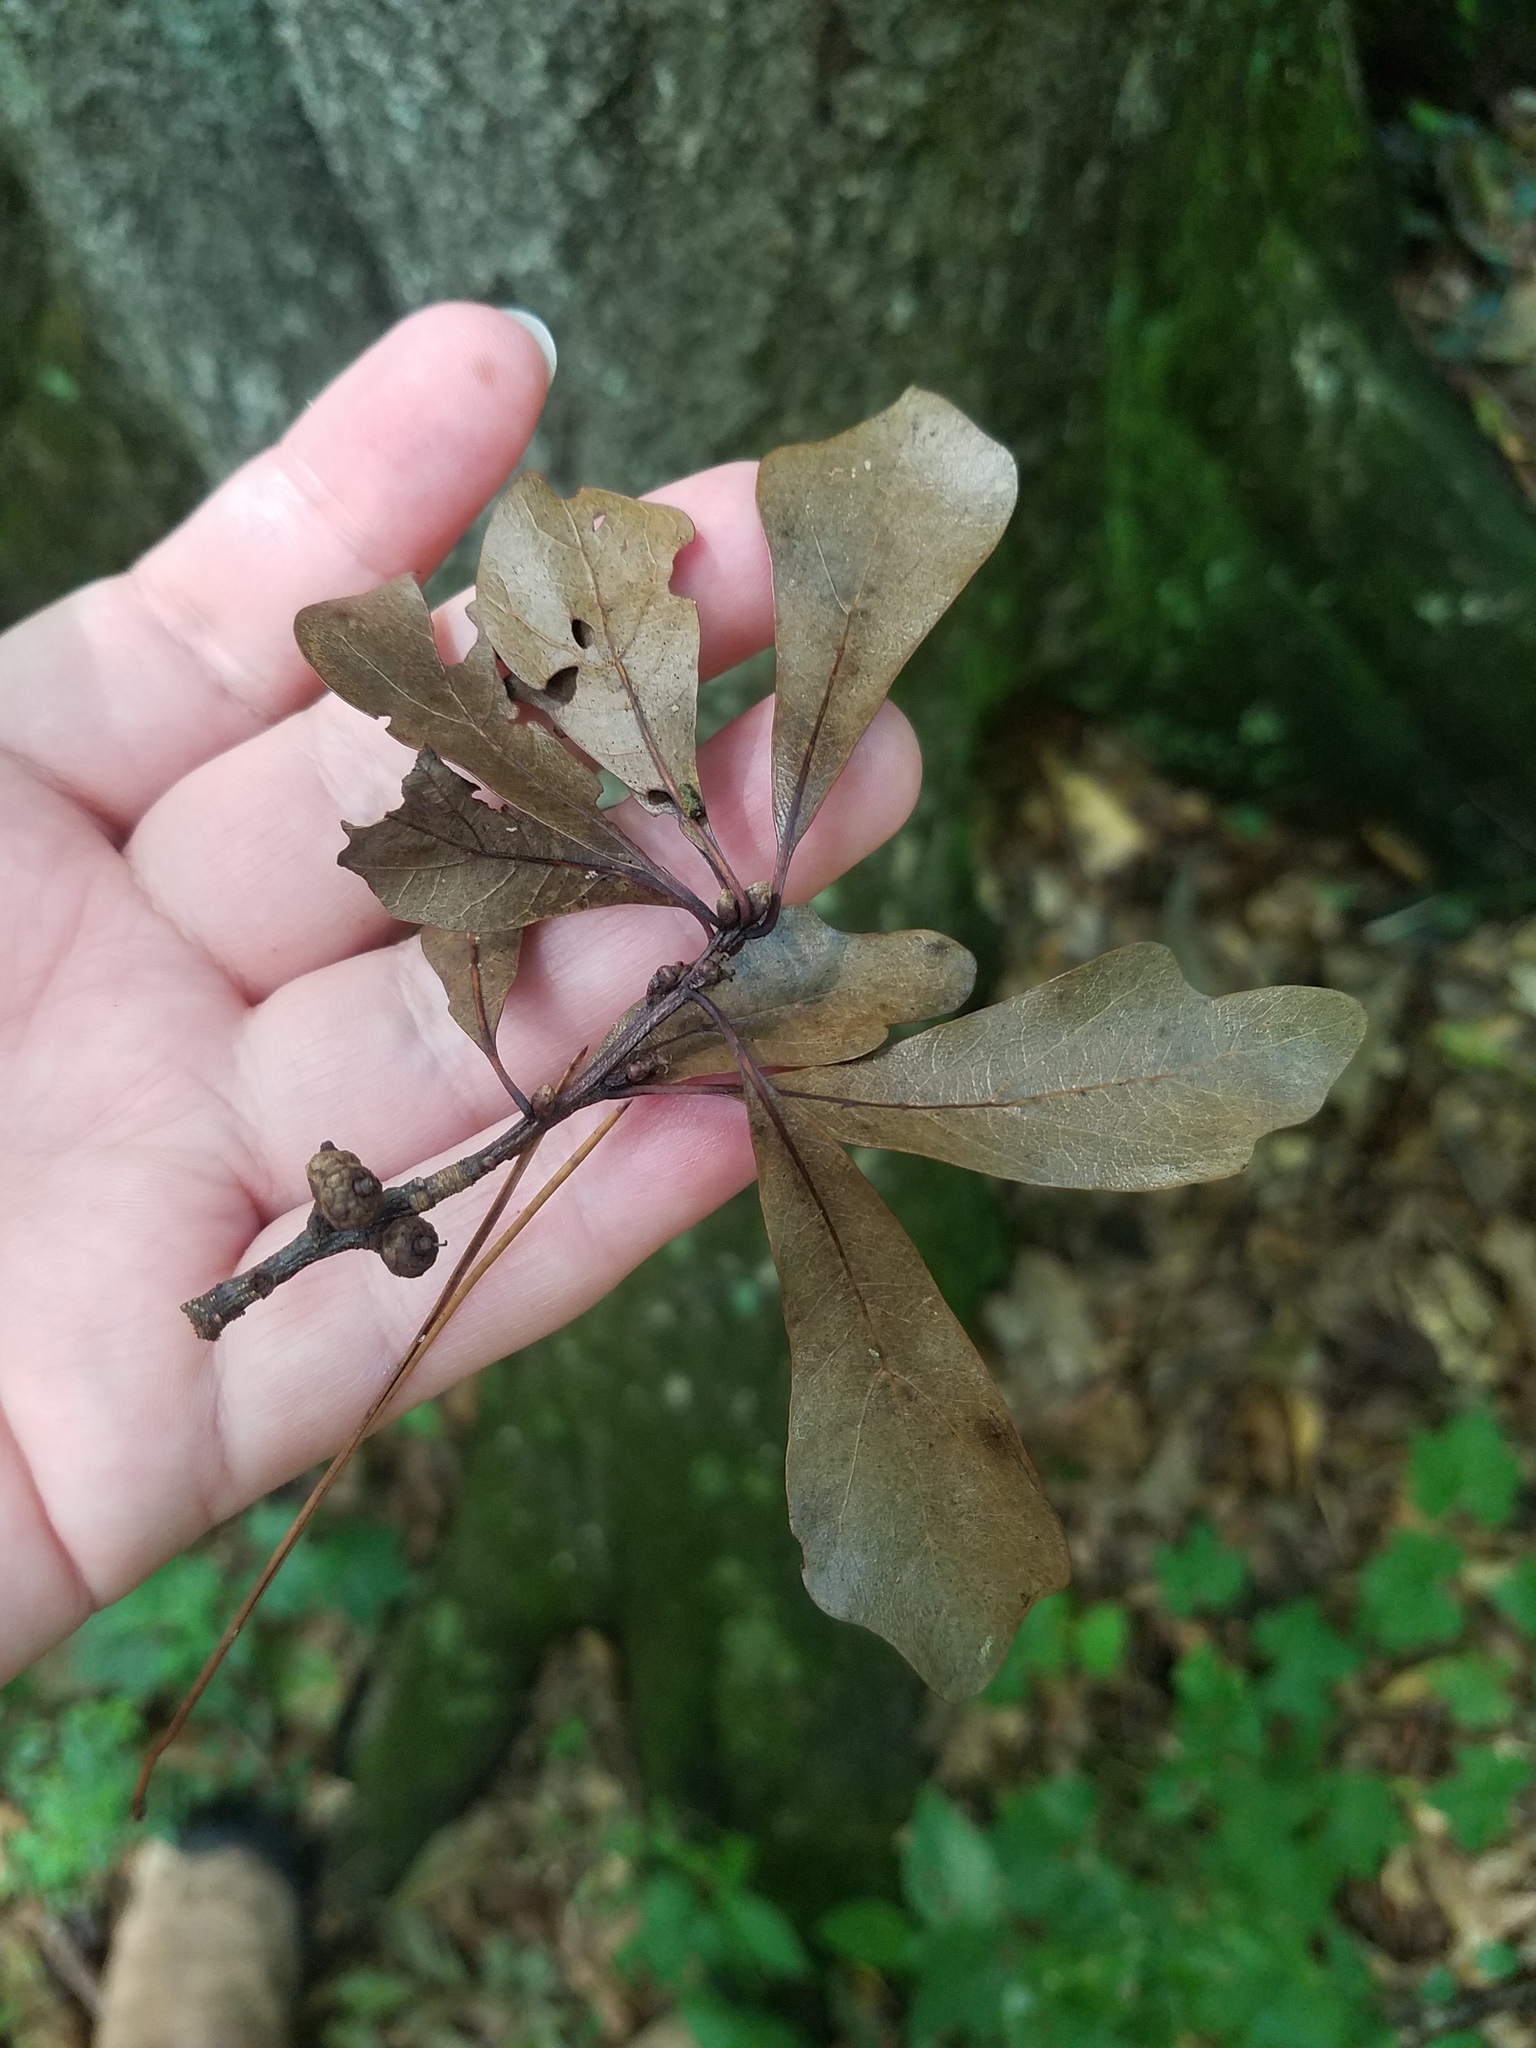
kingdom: Plantae
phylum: Tracheophyta
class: Magnoliopsida
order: Fagales
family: Fagaceae
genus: Quercus
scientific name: Quercus nigra
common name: Water oak
